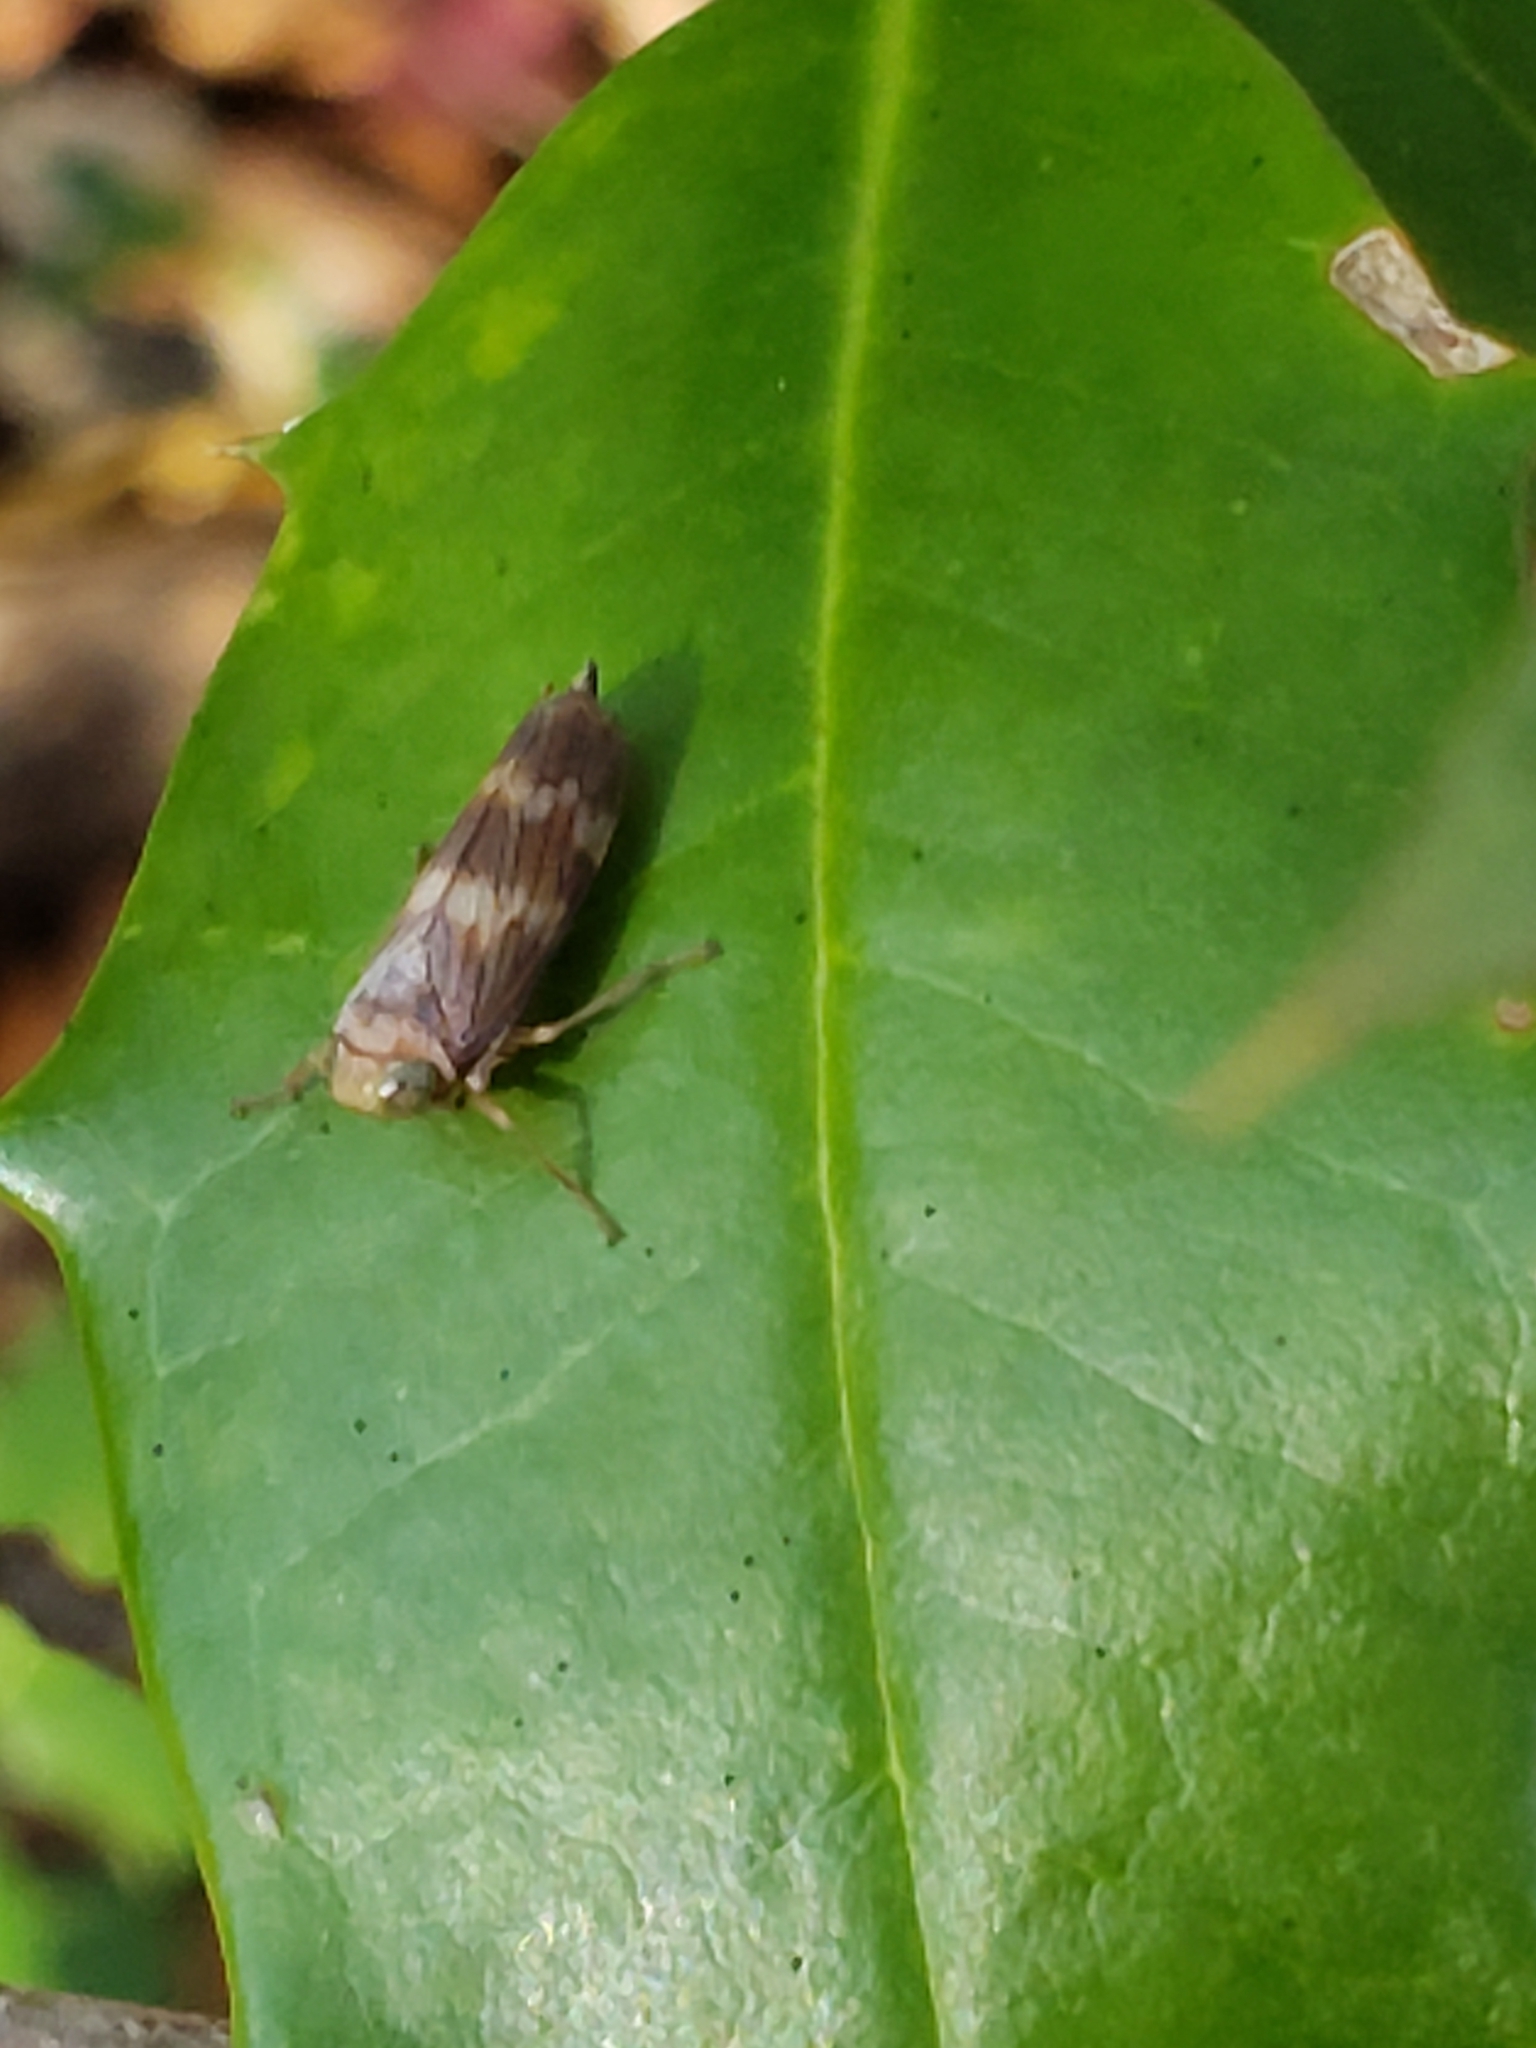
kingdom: Animalia
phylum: Arthropoda
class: Insecta
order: Hemiptera
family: Cicadellidae
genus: Jikradia
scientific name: Jikradia olitoria
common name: Coppery leafhopper
